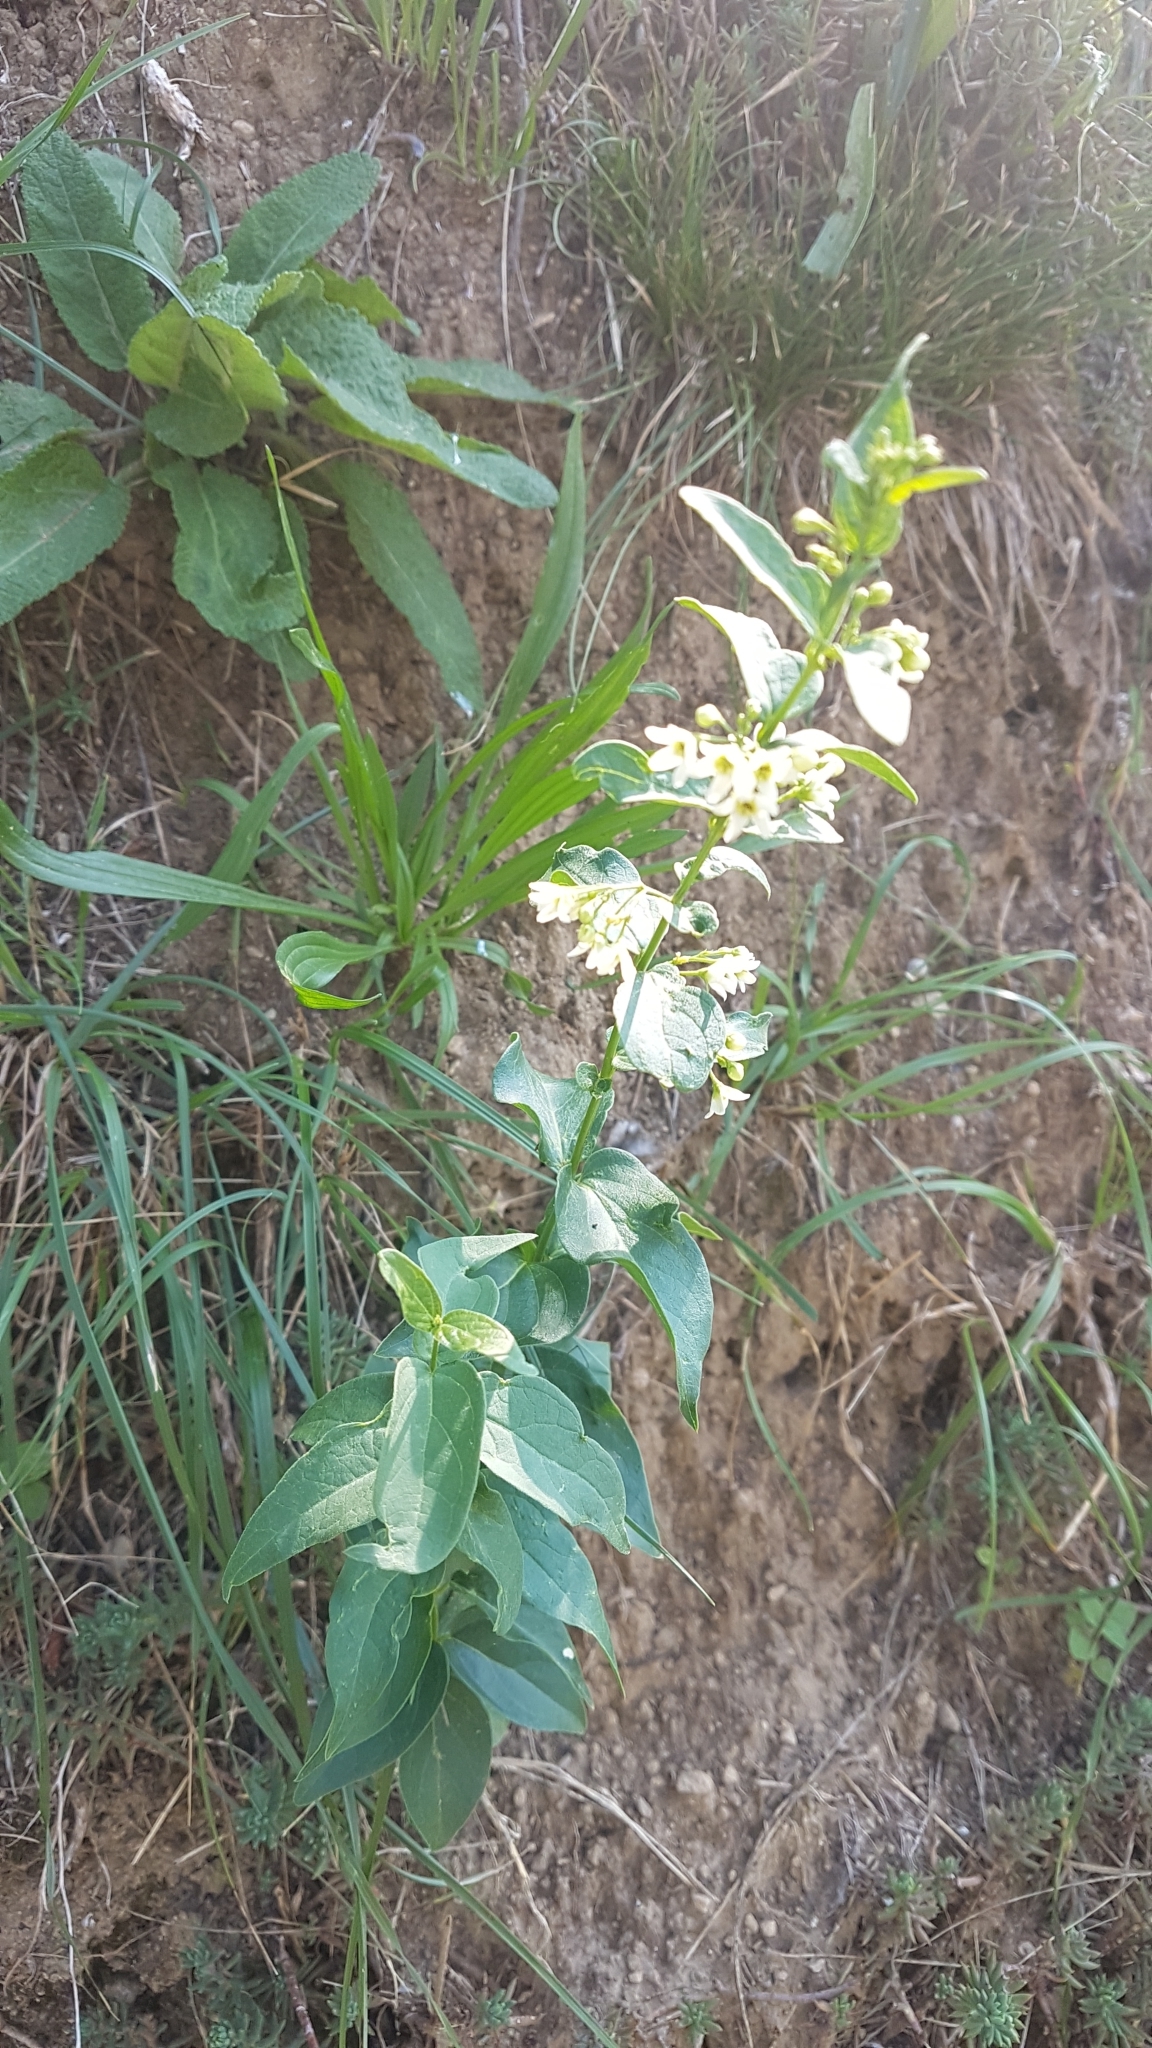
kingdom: Plantae
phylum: Tracheophyta
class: Magnoliopsida
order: Gentianales
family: Apocynaceae
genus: Vincetoxicum
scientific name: Vincetoxicum hirundinaria
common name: White swallowwort
